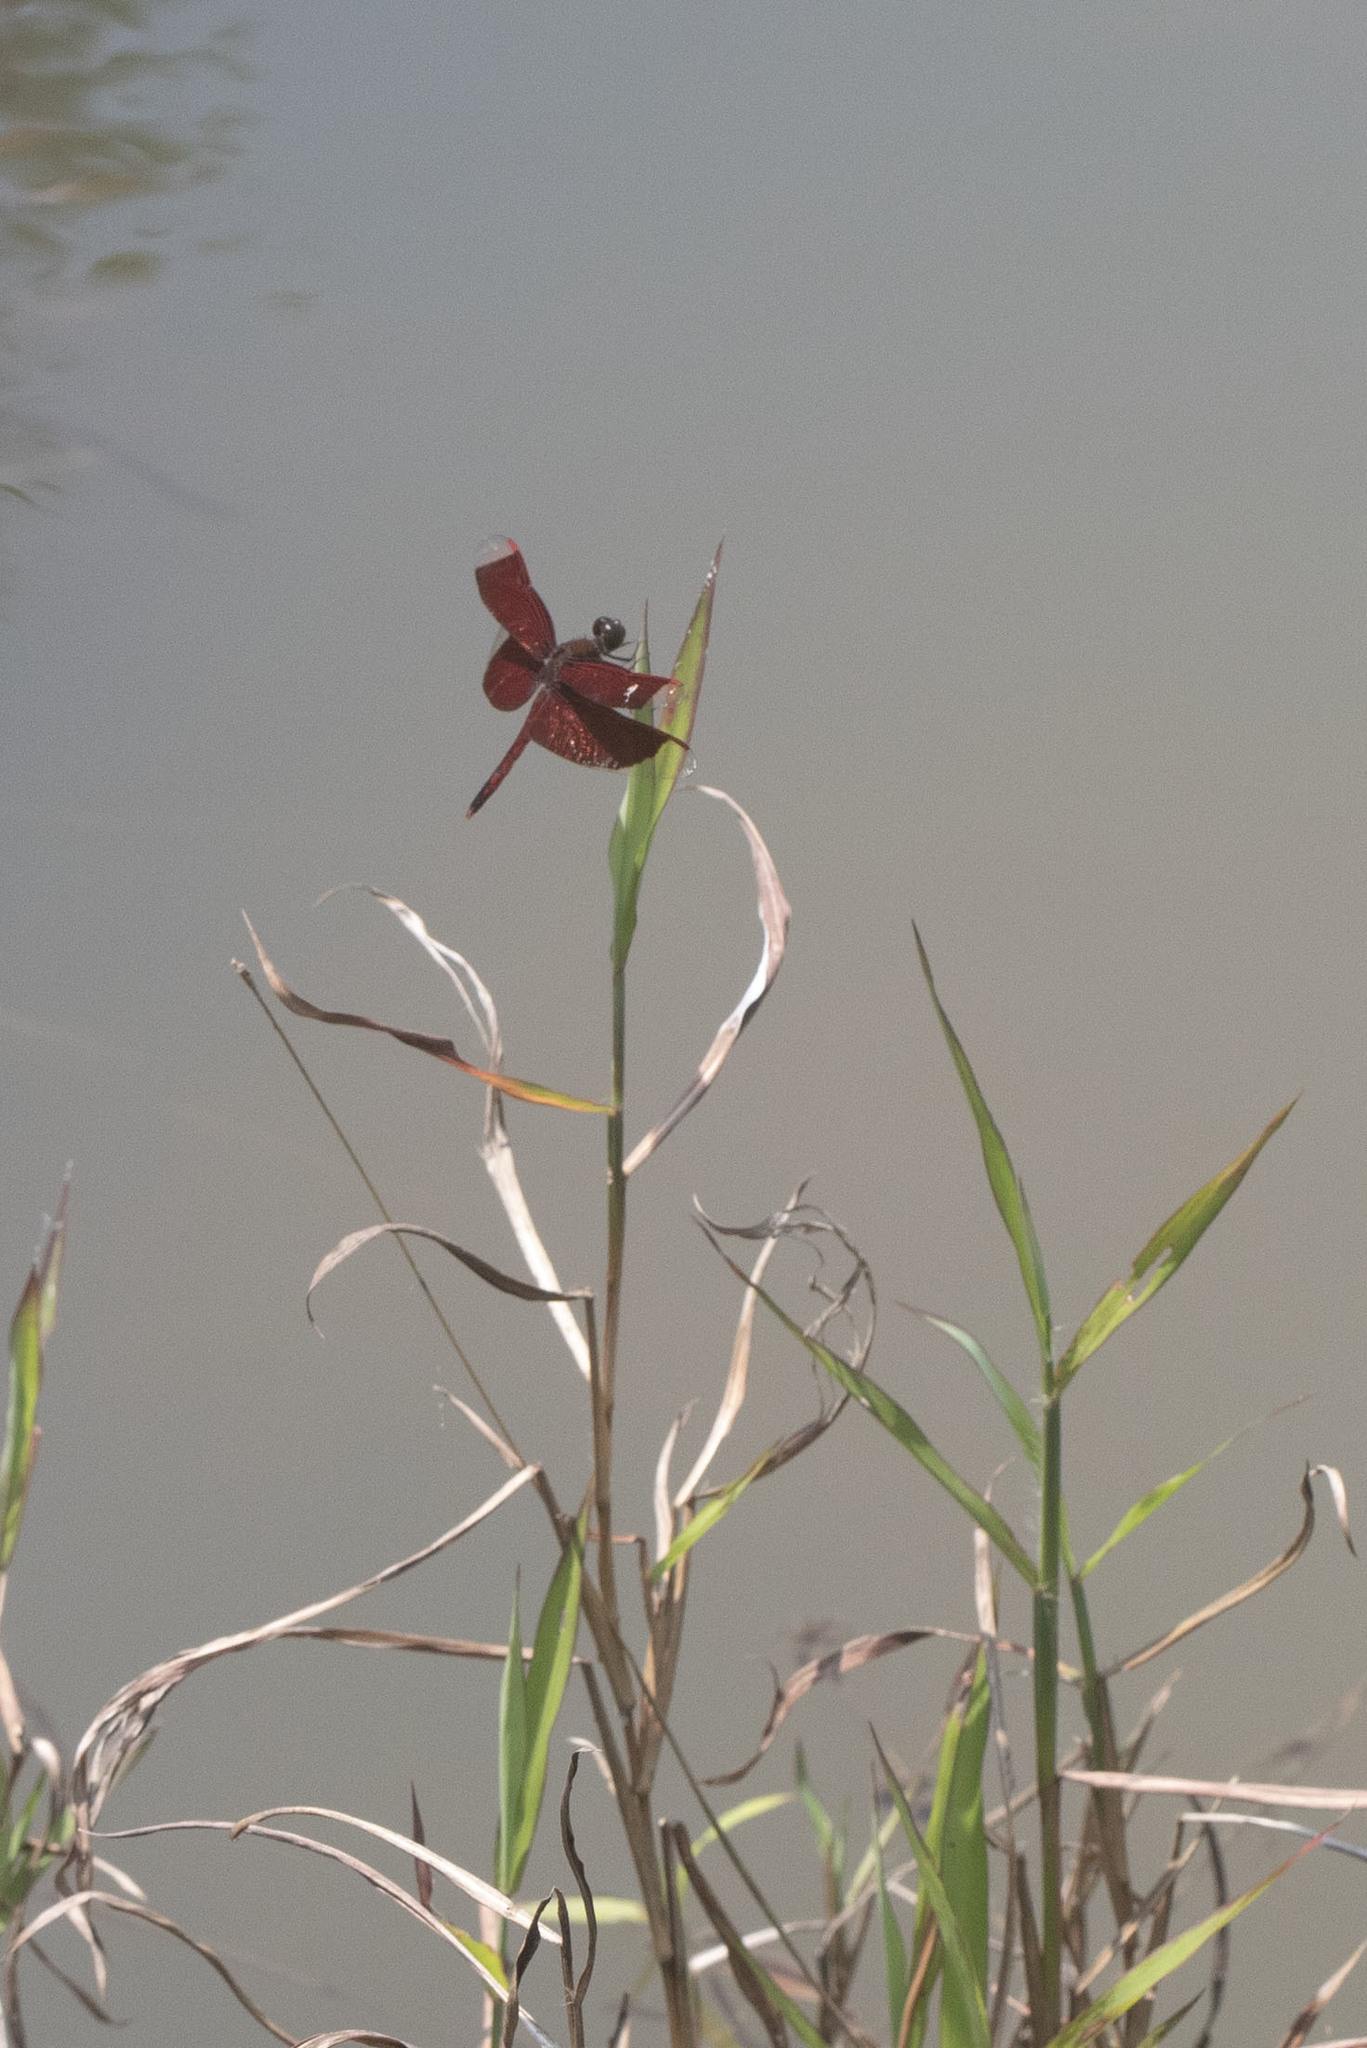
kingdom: Animalia
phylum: Arthropoda
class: Insecta
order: Odonata
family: Libellulidae
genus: Neurothemis
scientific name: Neurothemis ramburii
